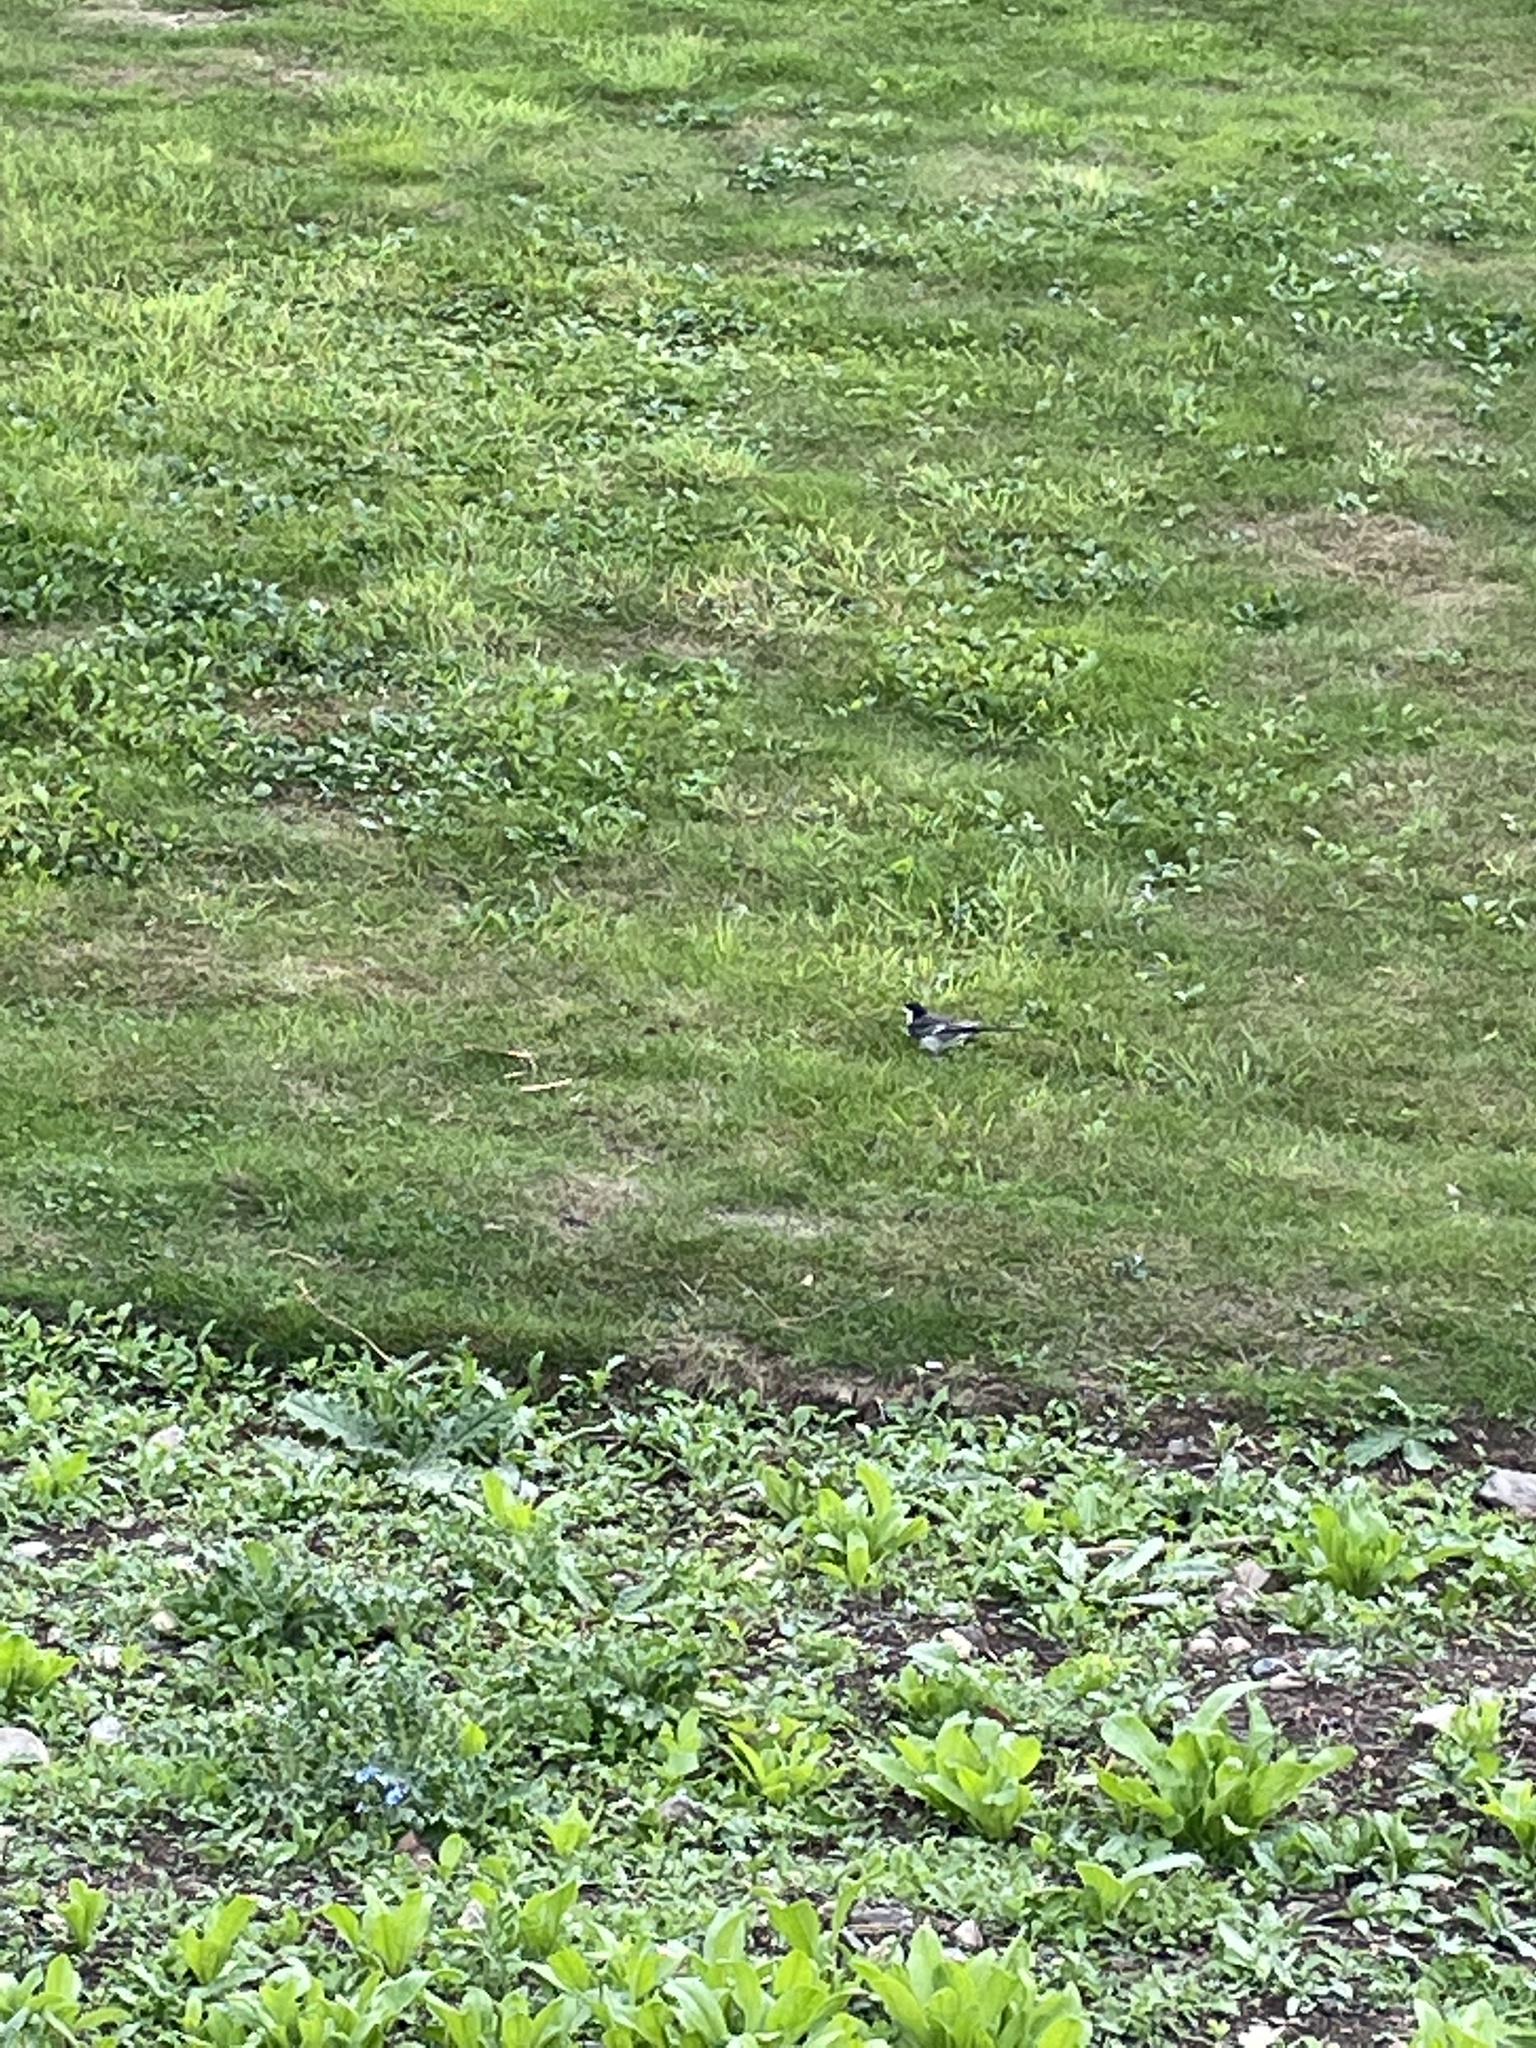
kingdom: Animalia
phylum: Chordata
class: Aves
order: Passeriformes
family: Motacillidae
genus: Motacilla
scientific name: Motacilla alba
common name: White wagtail
